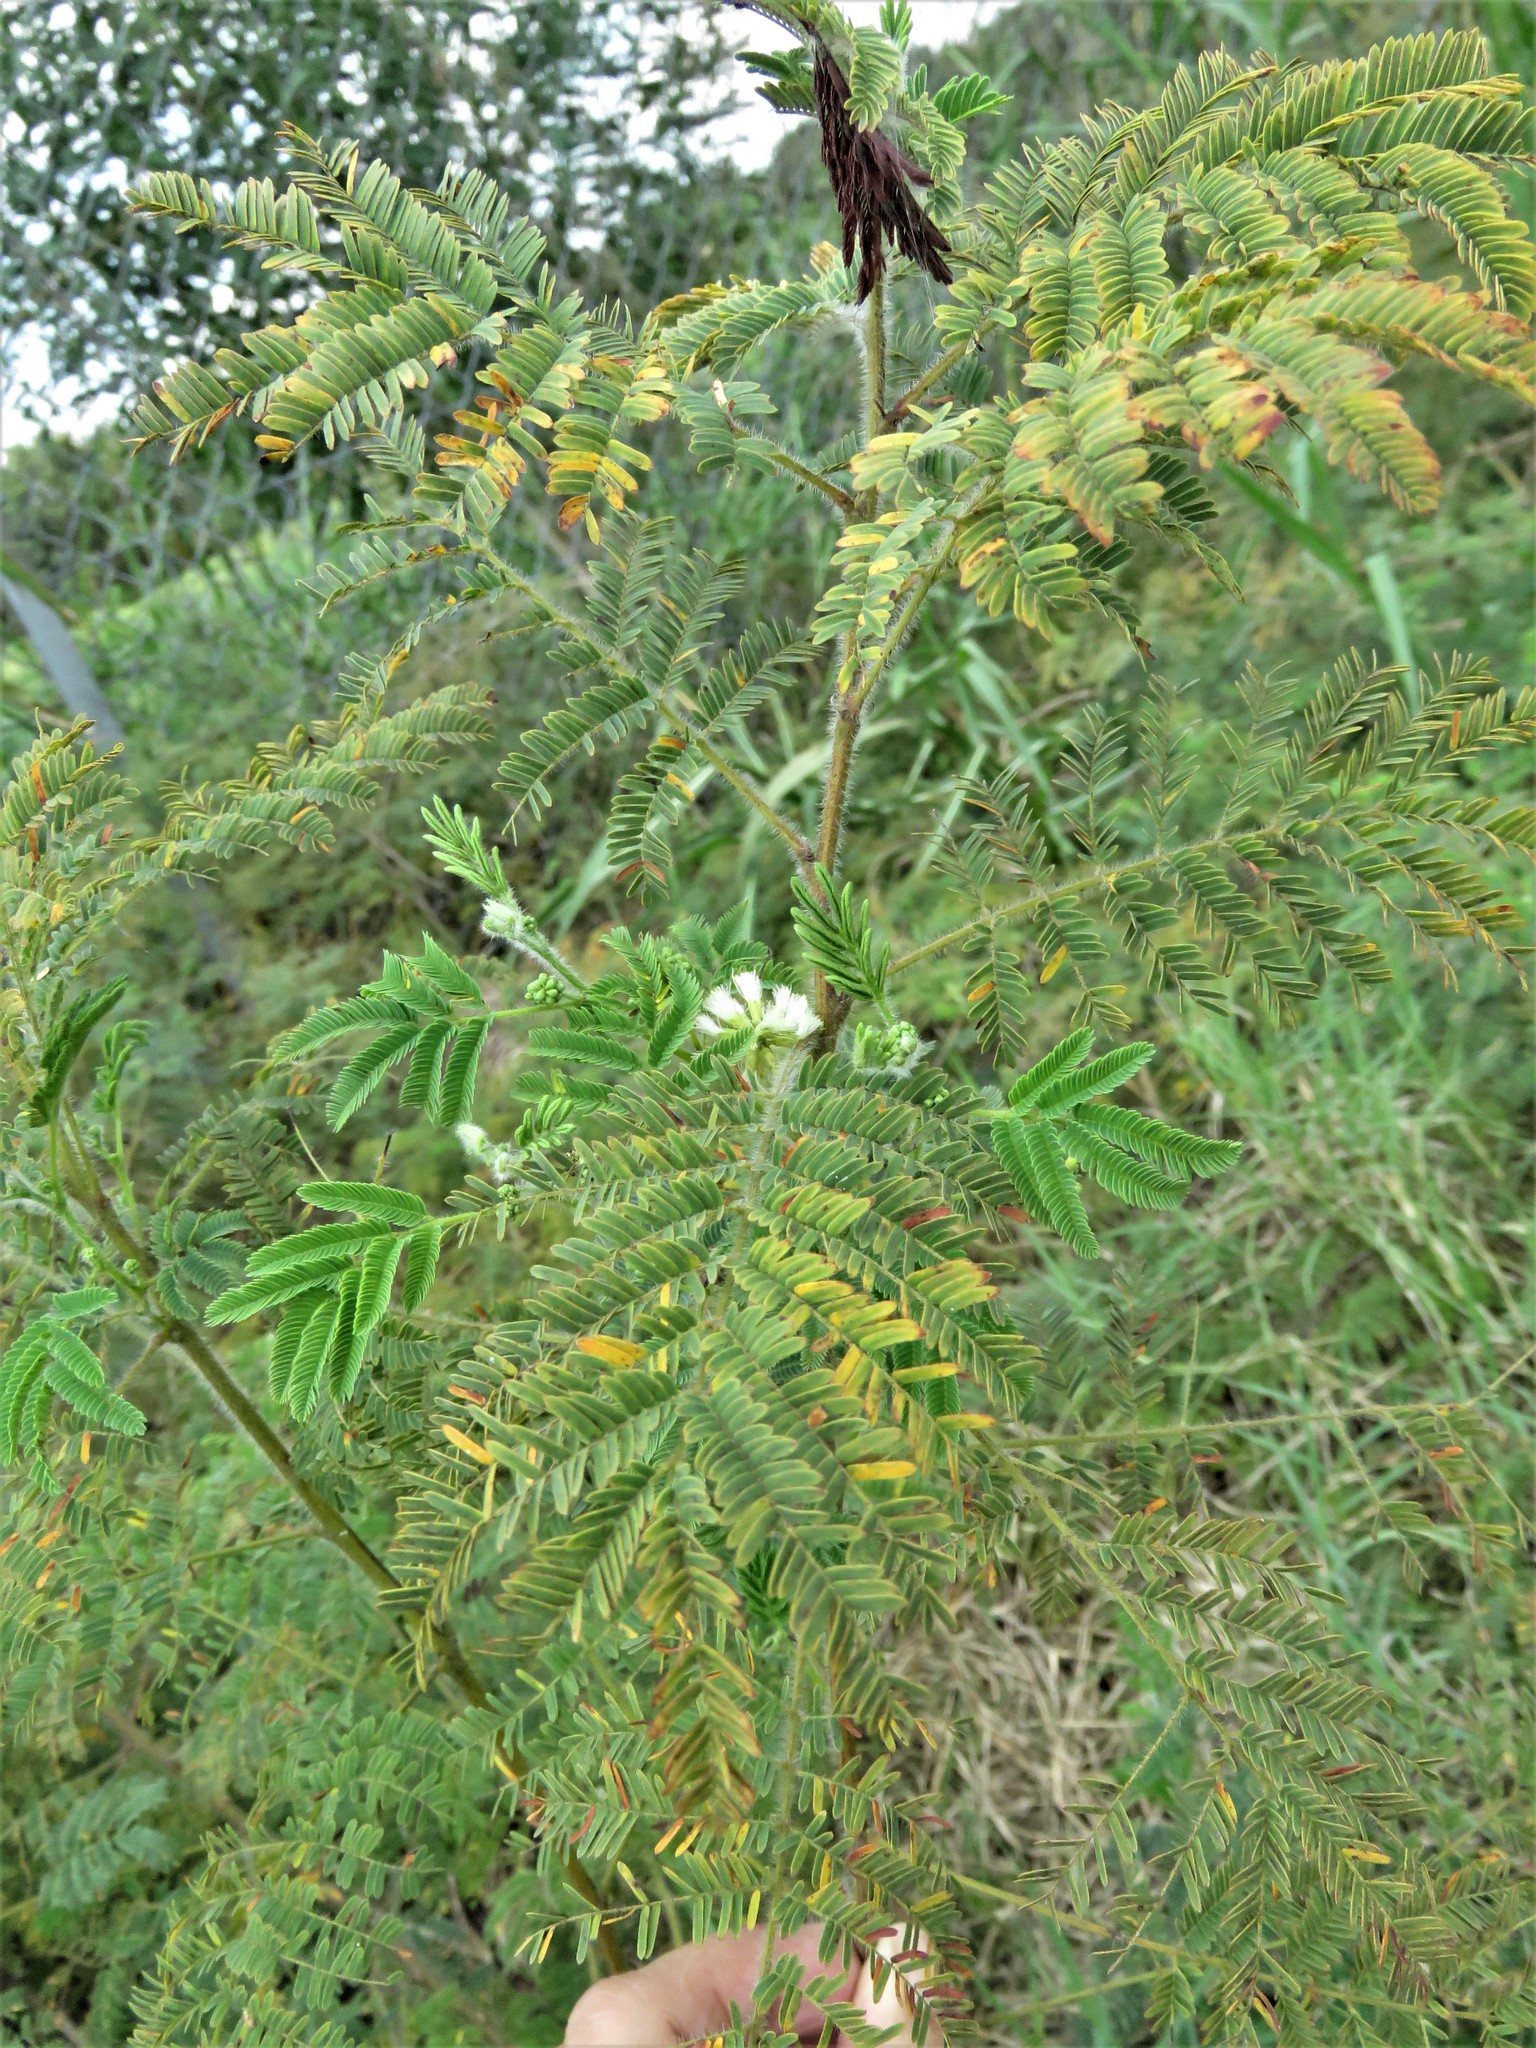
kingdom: Plantae
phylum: Tracheophyta
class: Magnoliopsida
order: Fabales
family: Fabaceae
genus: Acaciella
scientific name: Acaciella angustissima
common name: Prairie acacia
